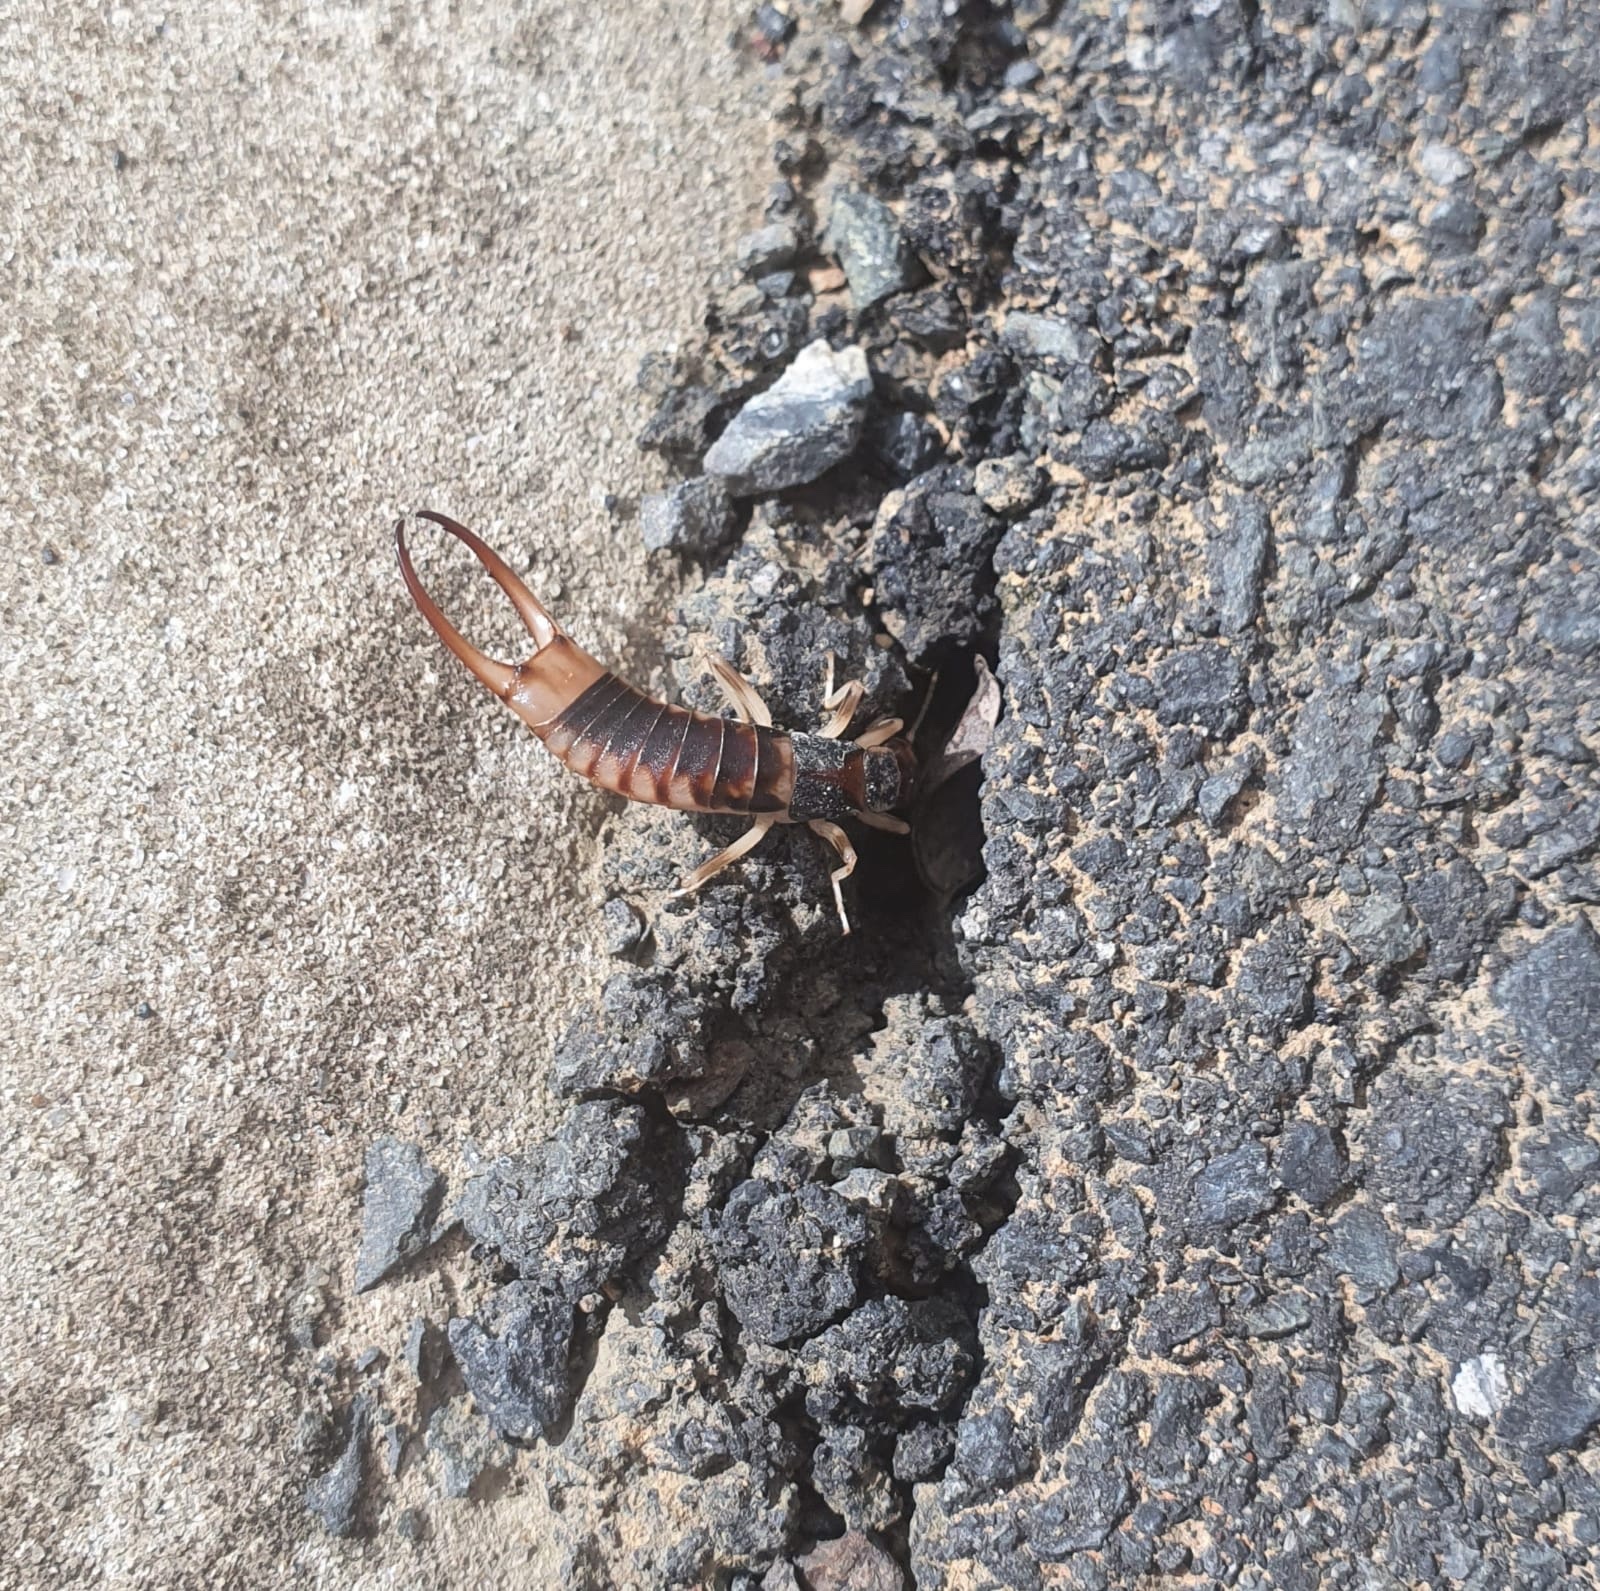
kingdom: Animalia
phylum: Arthropoda
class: Insecta
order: Dermaptera
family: Labiduridae
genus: Labidura
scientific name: Labidura riparia
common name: Striped earwig
